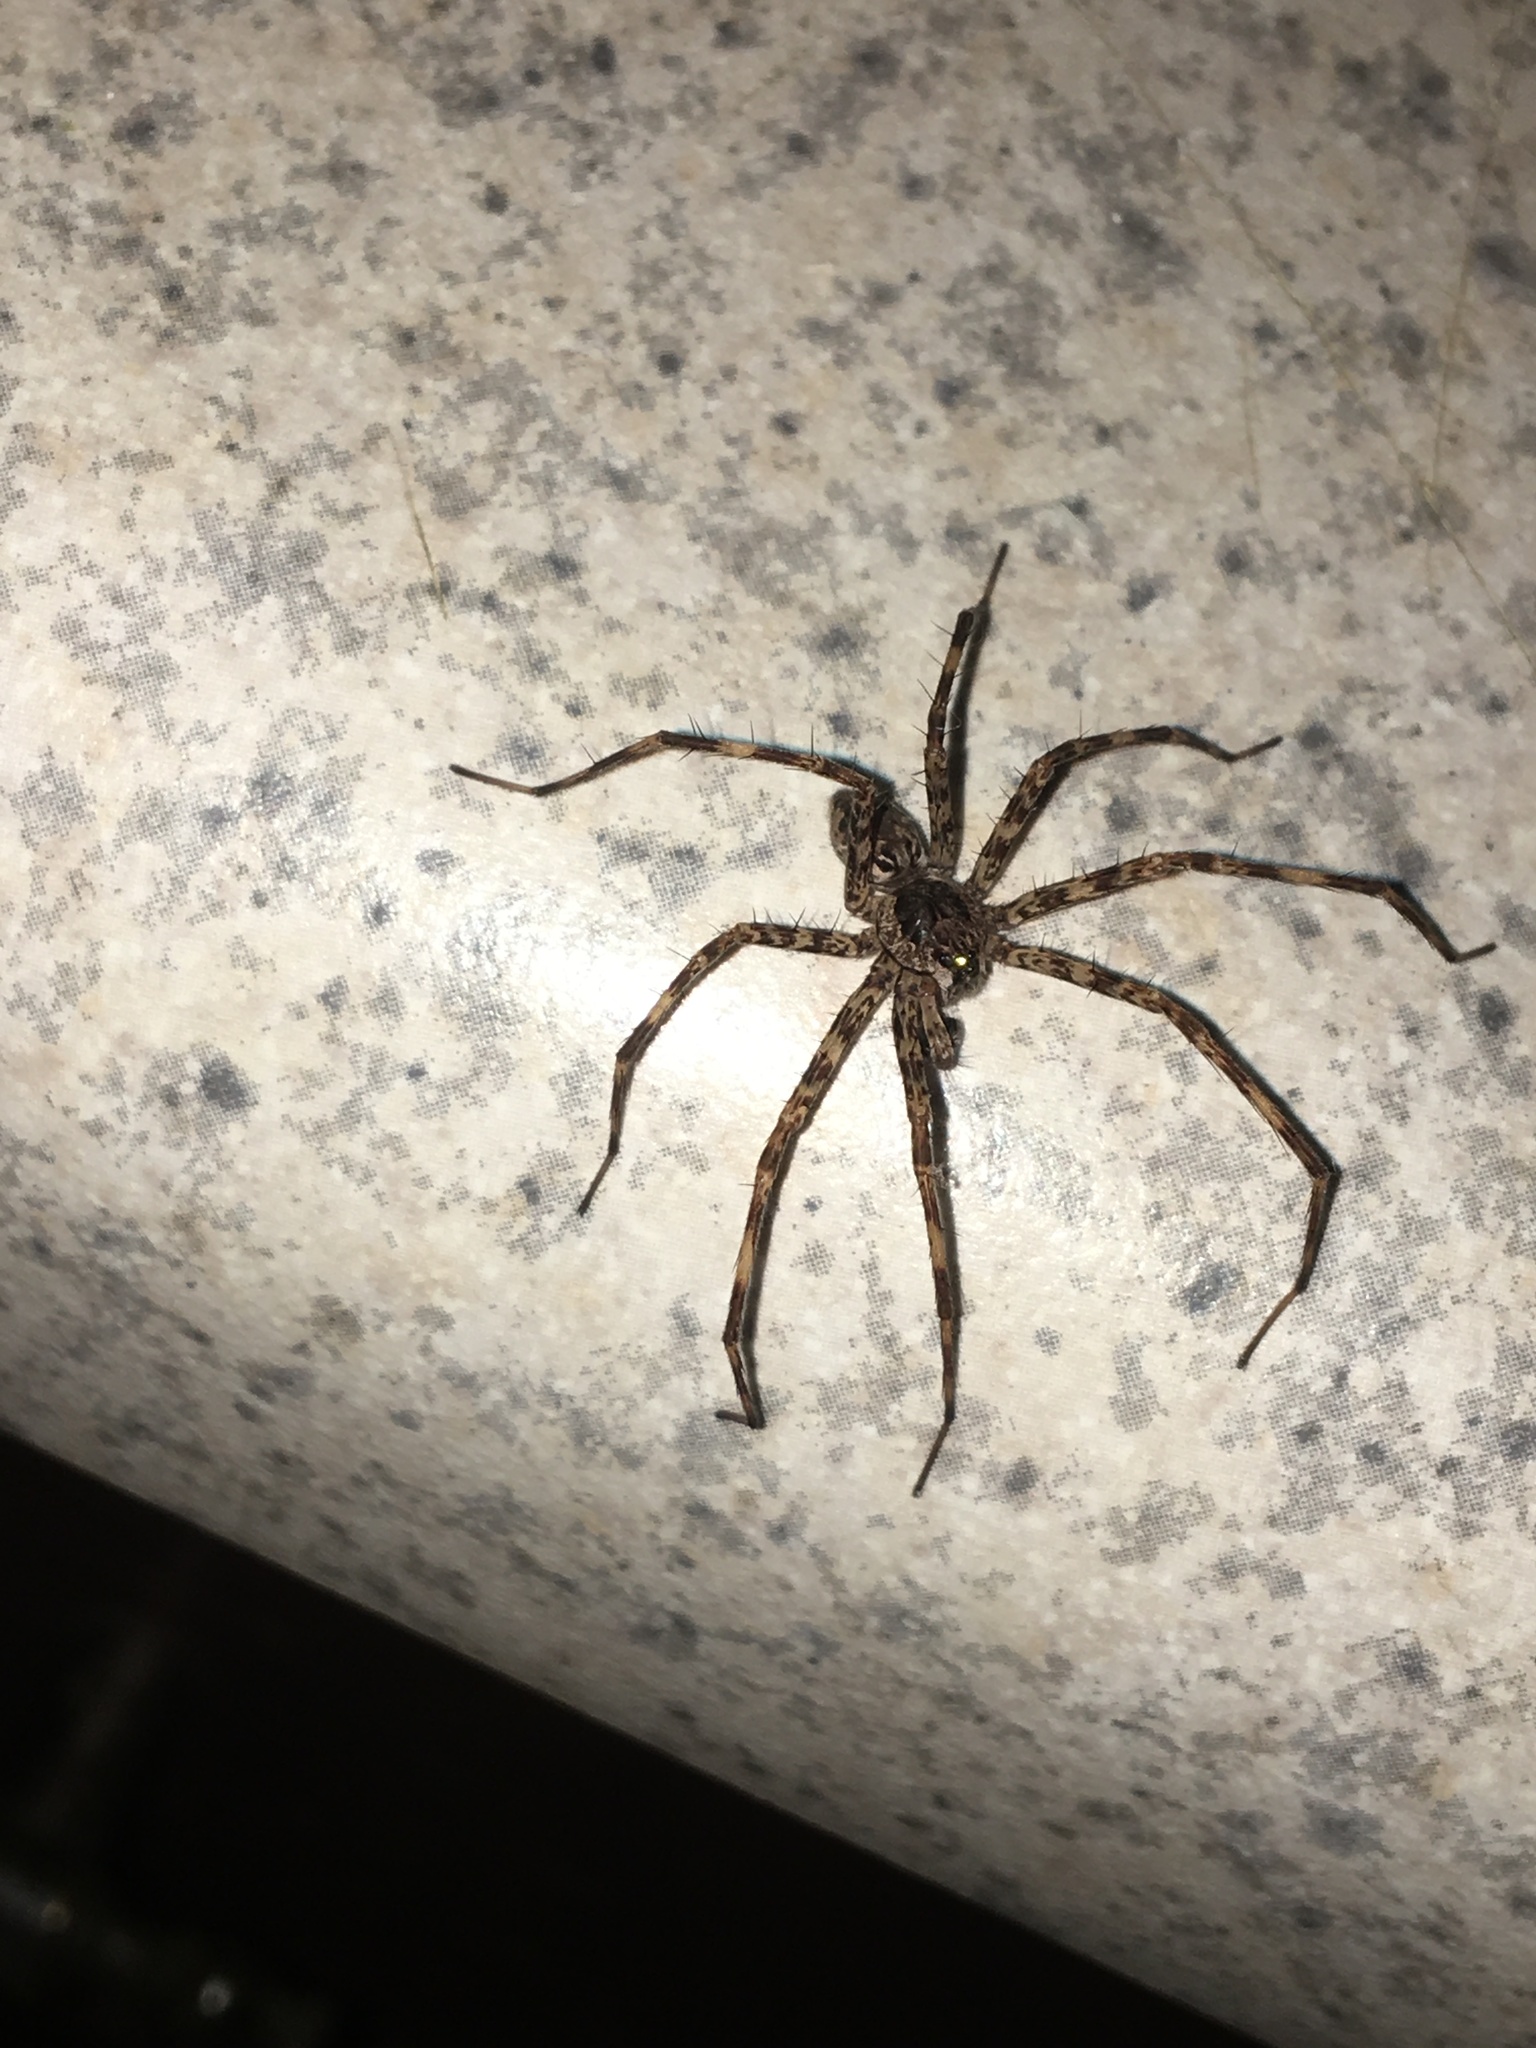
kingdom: Animalia
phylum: Arthropoda
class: Arachnida
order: Araneae
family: Pisauridae
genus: Dolomedes
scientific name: Dolomedes tenebrosus
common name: Dark fishing spider
